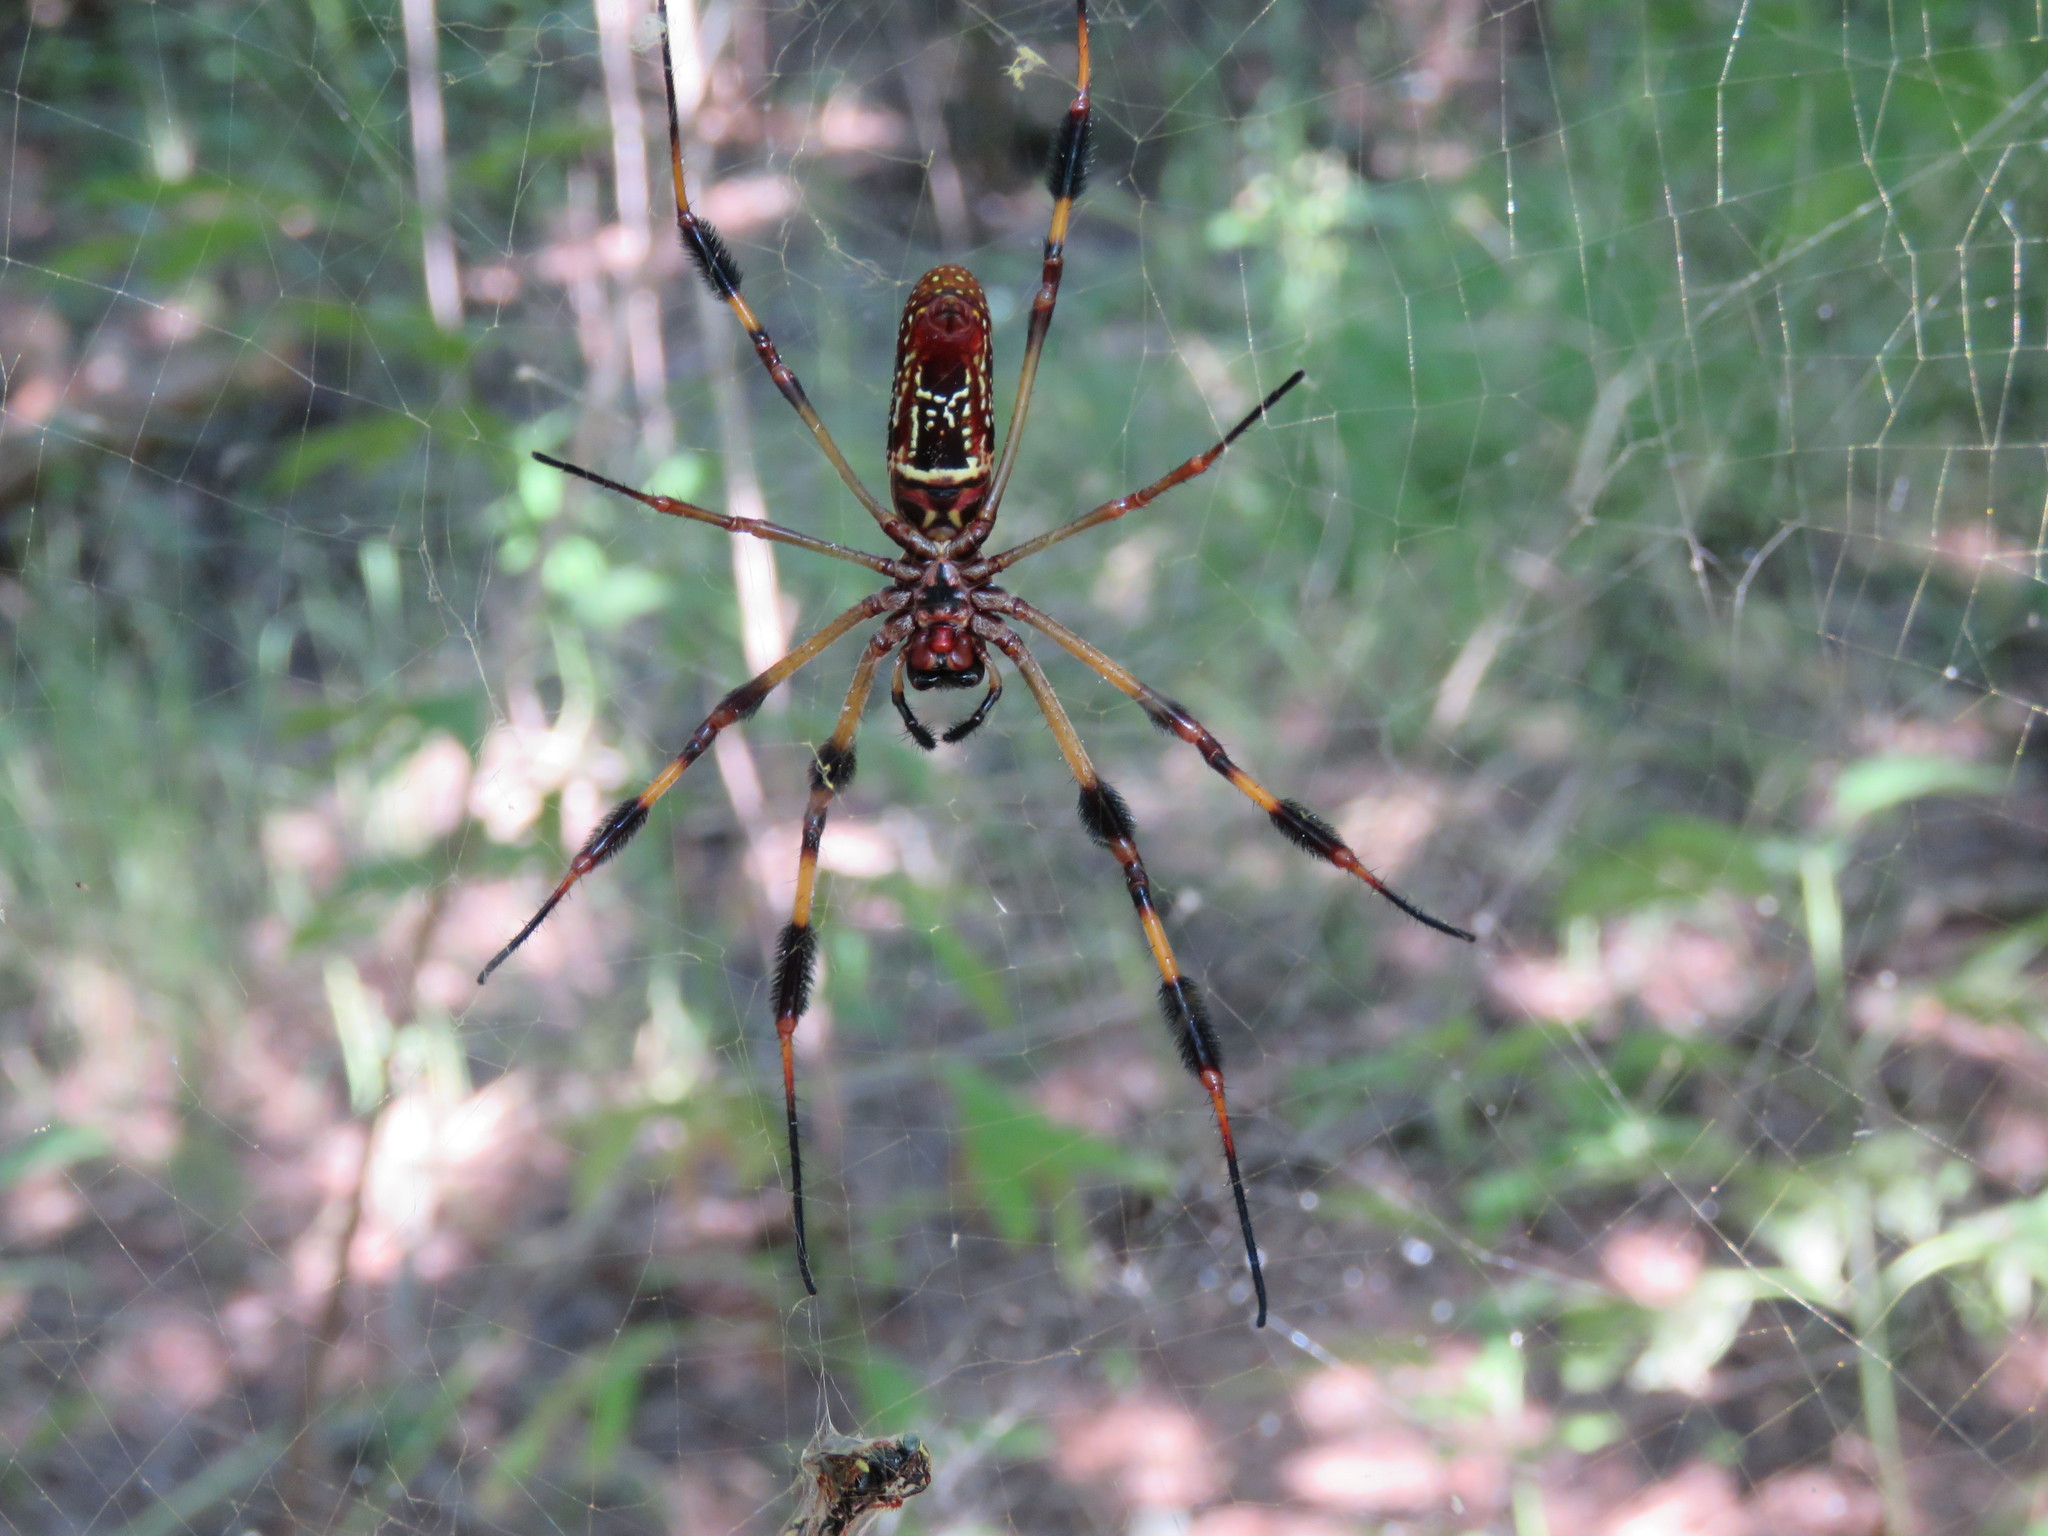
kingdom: Animalia
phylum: Arthropoda
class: Arachnida
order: Araneae
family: Araneidae
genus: Trichonephila
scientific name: Trichonephila clavipes
